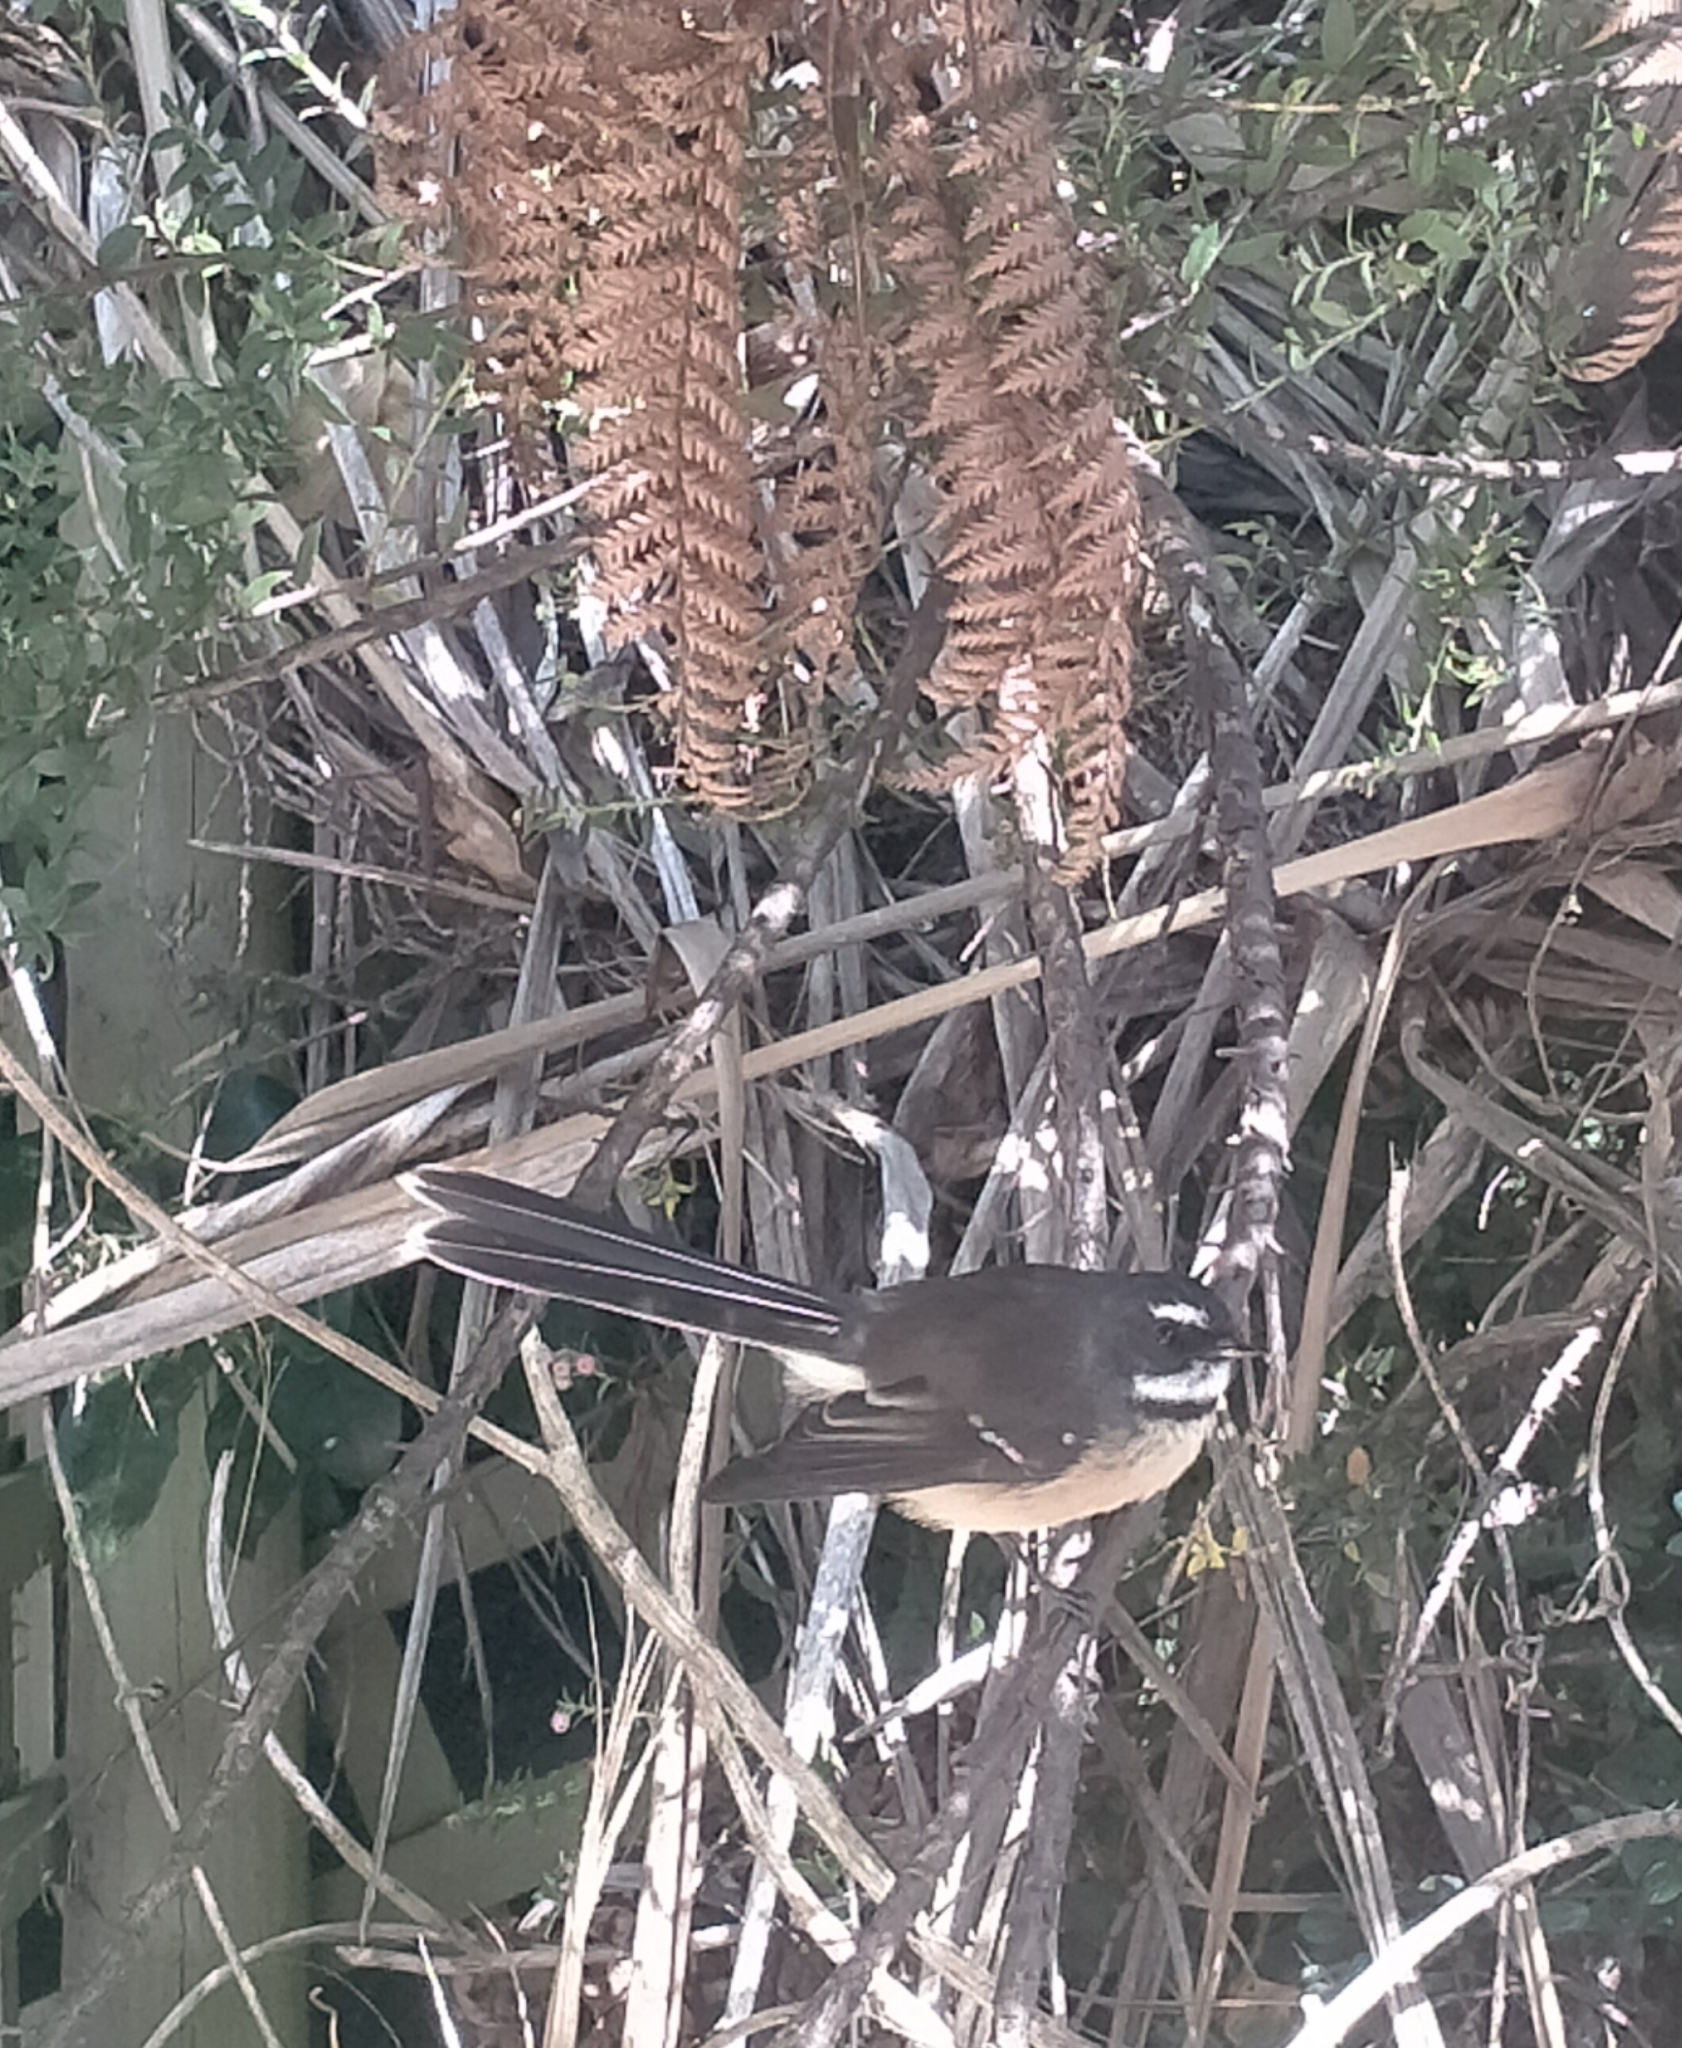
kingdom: Animalia
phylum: Chordata
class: Aves
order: Passeriformes
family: Rhipiduridae
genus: Rhipidura
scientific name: Rhipidura fuliginosa
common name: New zealand fantail
